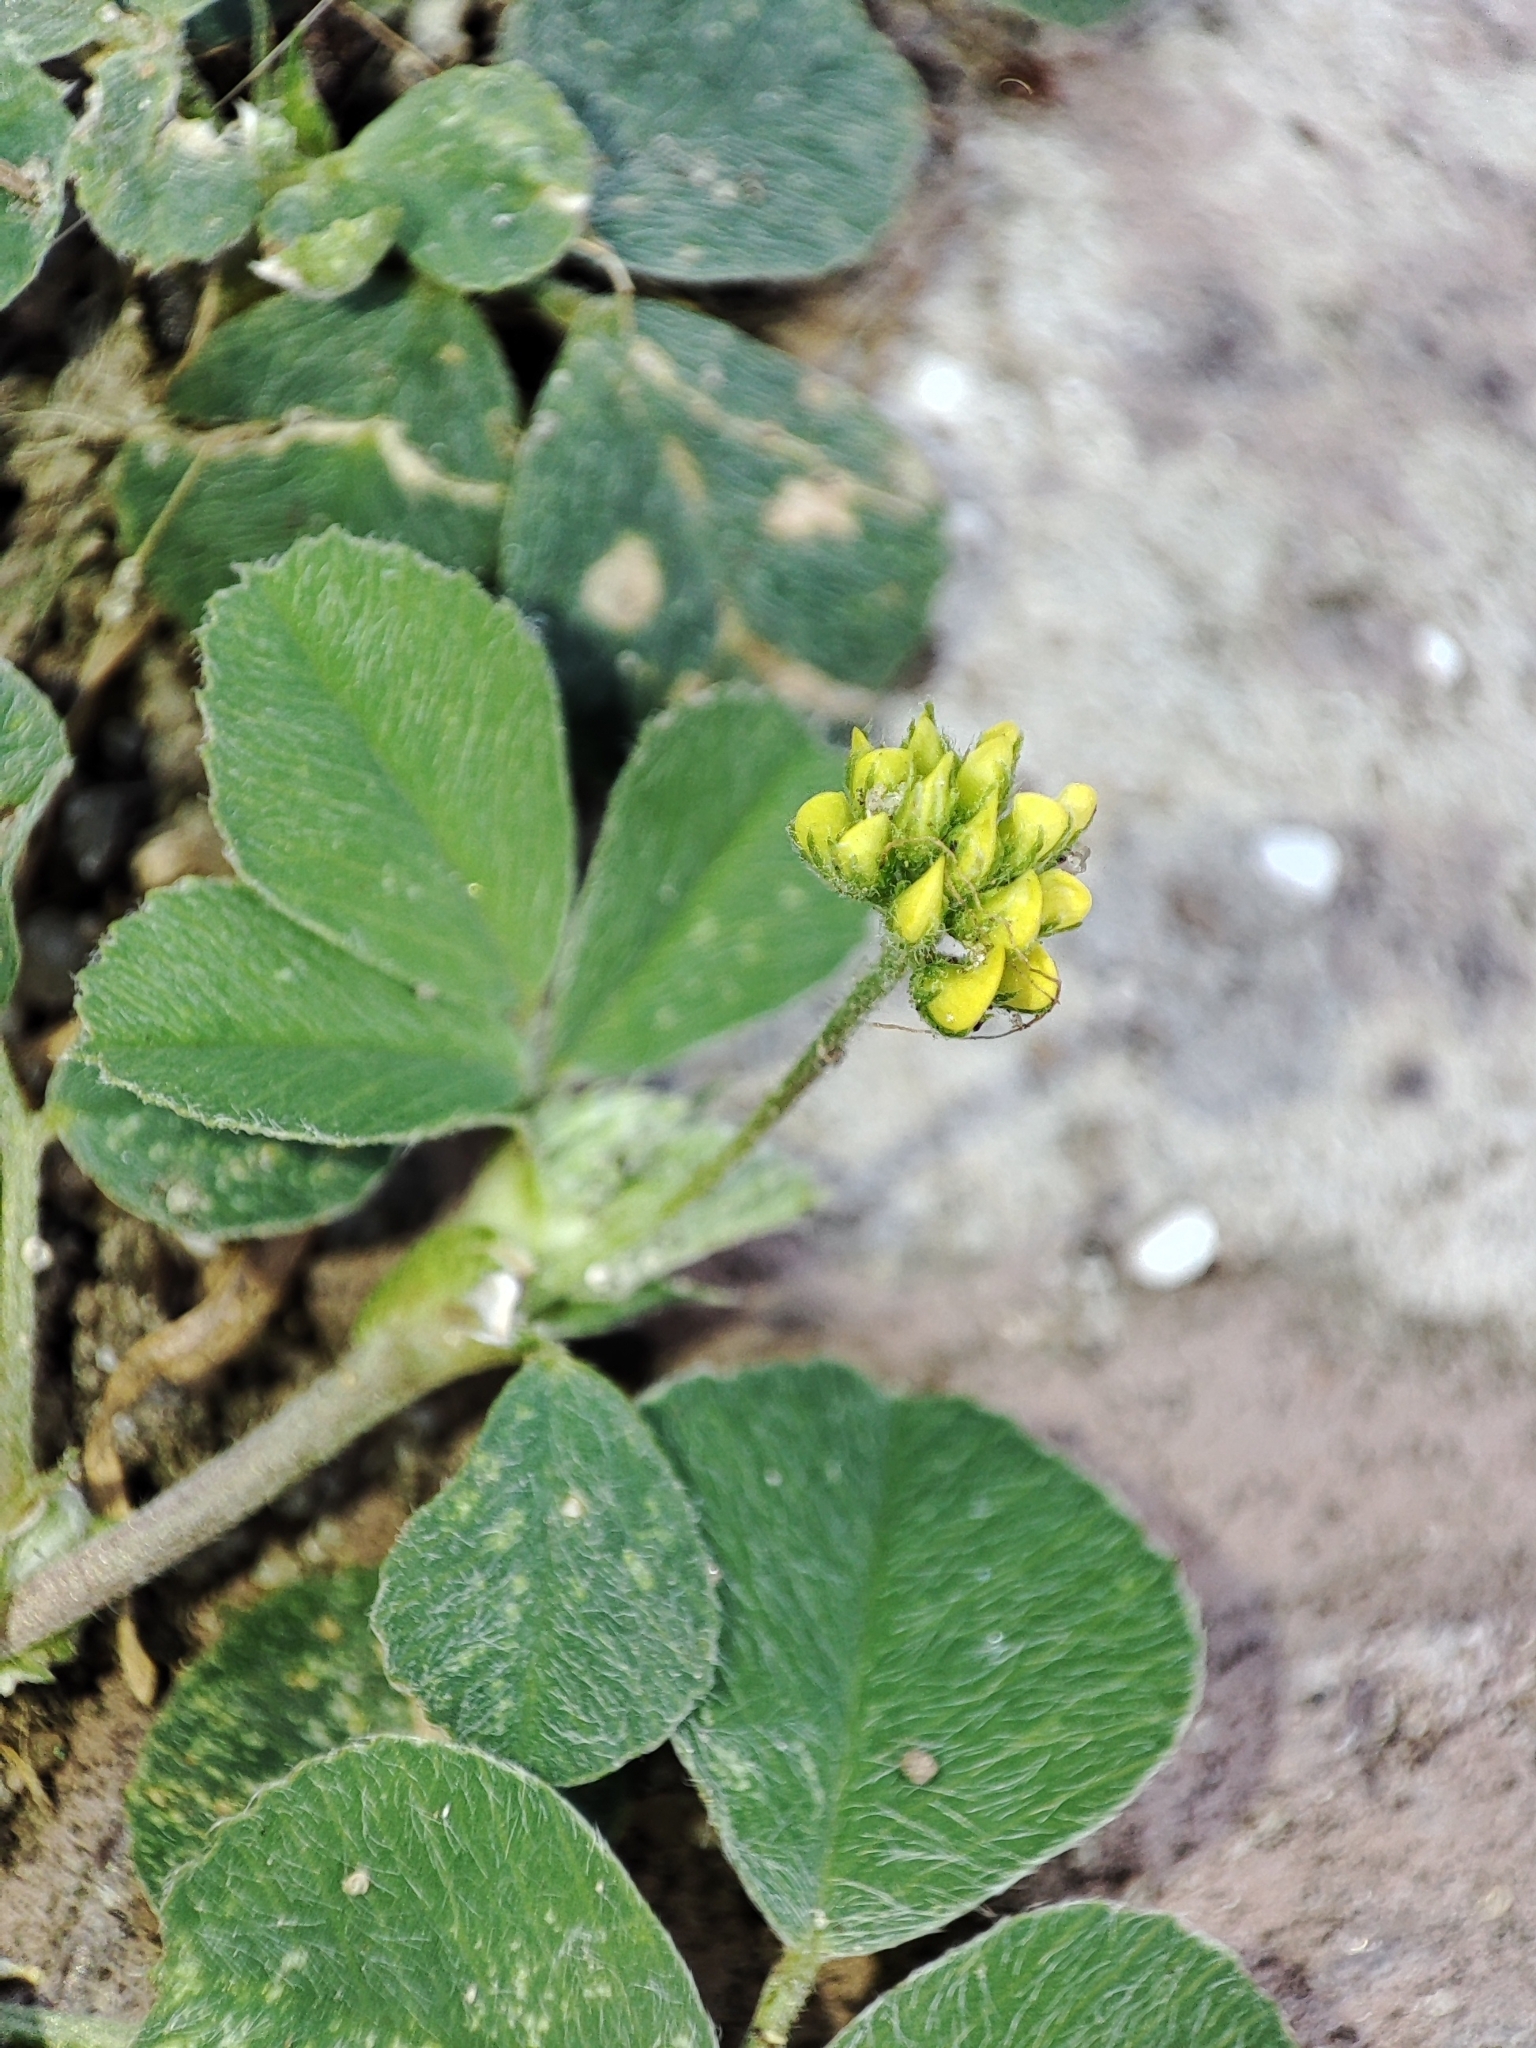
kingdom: Plantae
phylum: Tracheophyta
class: Magnoliopsida
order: Fabales
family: Fabaceae
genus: Medicago
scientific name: Medicago lupulina
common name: Black medick
